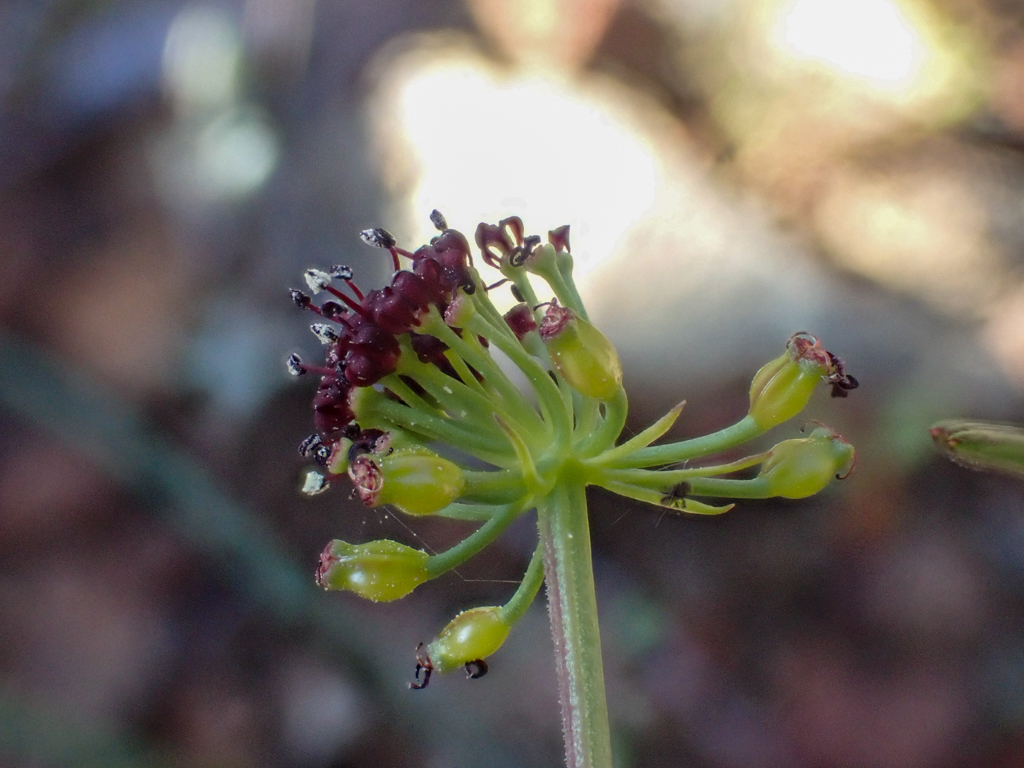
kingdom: Plantae
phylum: Tracheophyta
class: Magnoliopsida
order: Apiales
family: Apiaceae
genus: Lomatium
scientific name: Lomatium marginatum
